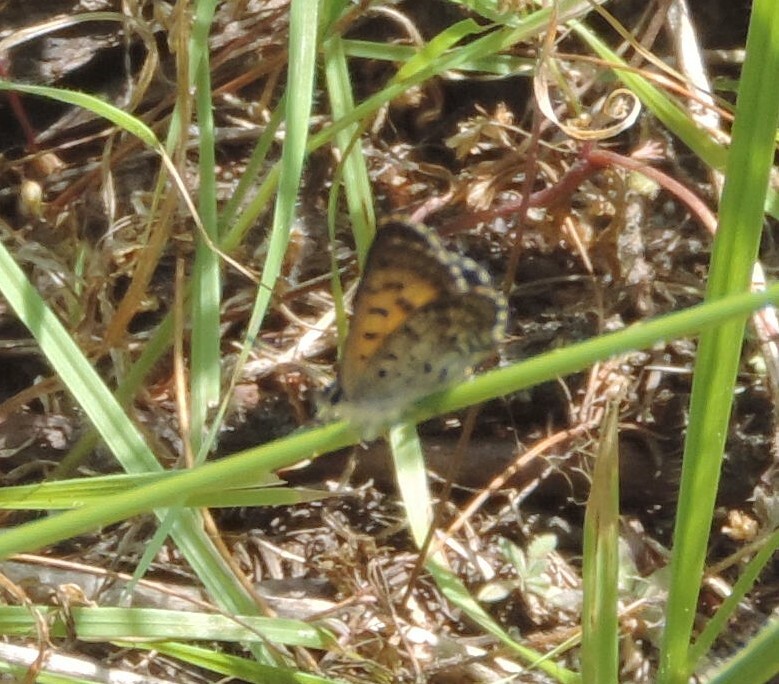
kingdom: Animalia
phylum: Arthropoda
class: Insecta
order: Lepidoptera
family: Lycaenidae
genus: Tharsalea
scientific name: Tharsalea mariposa
